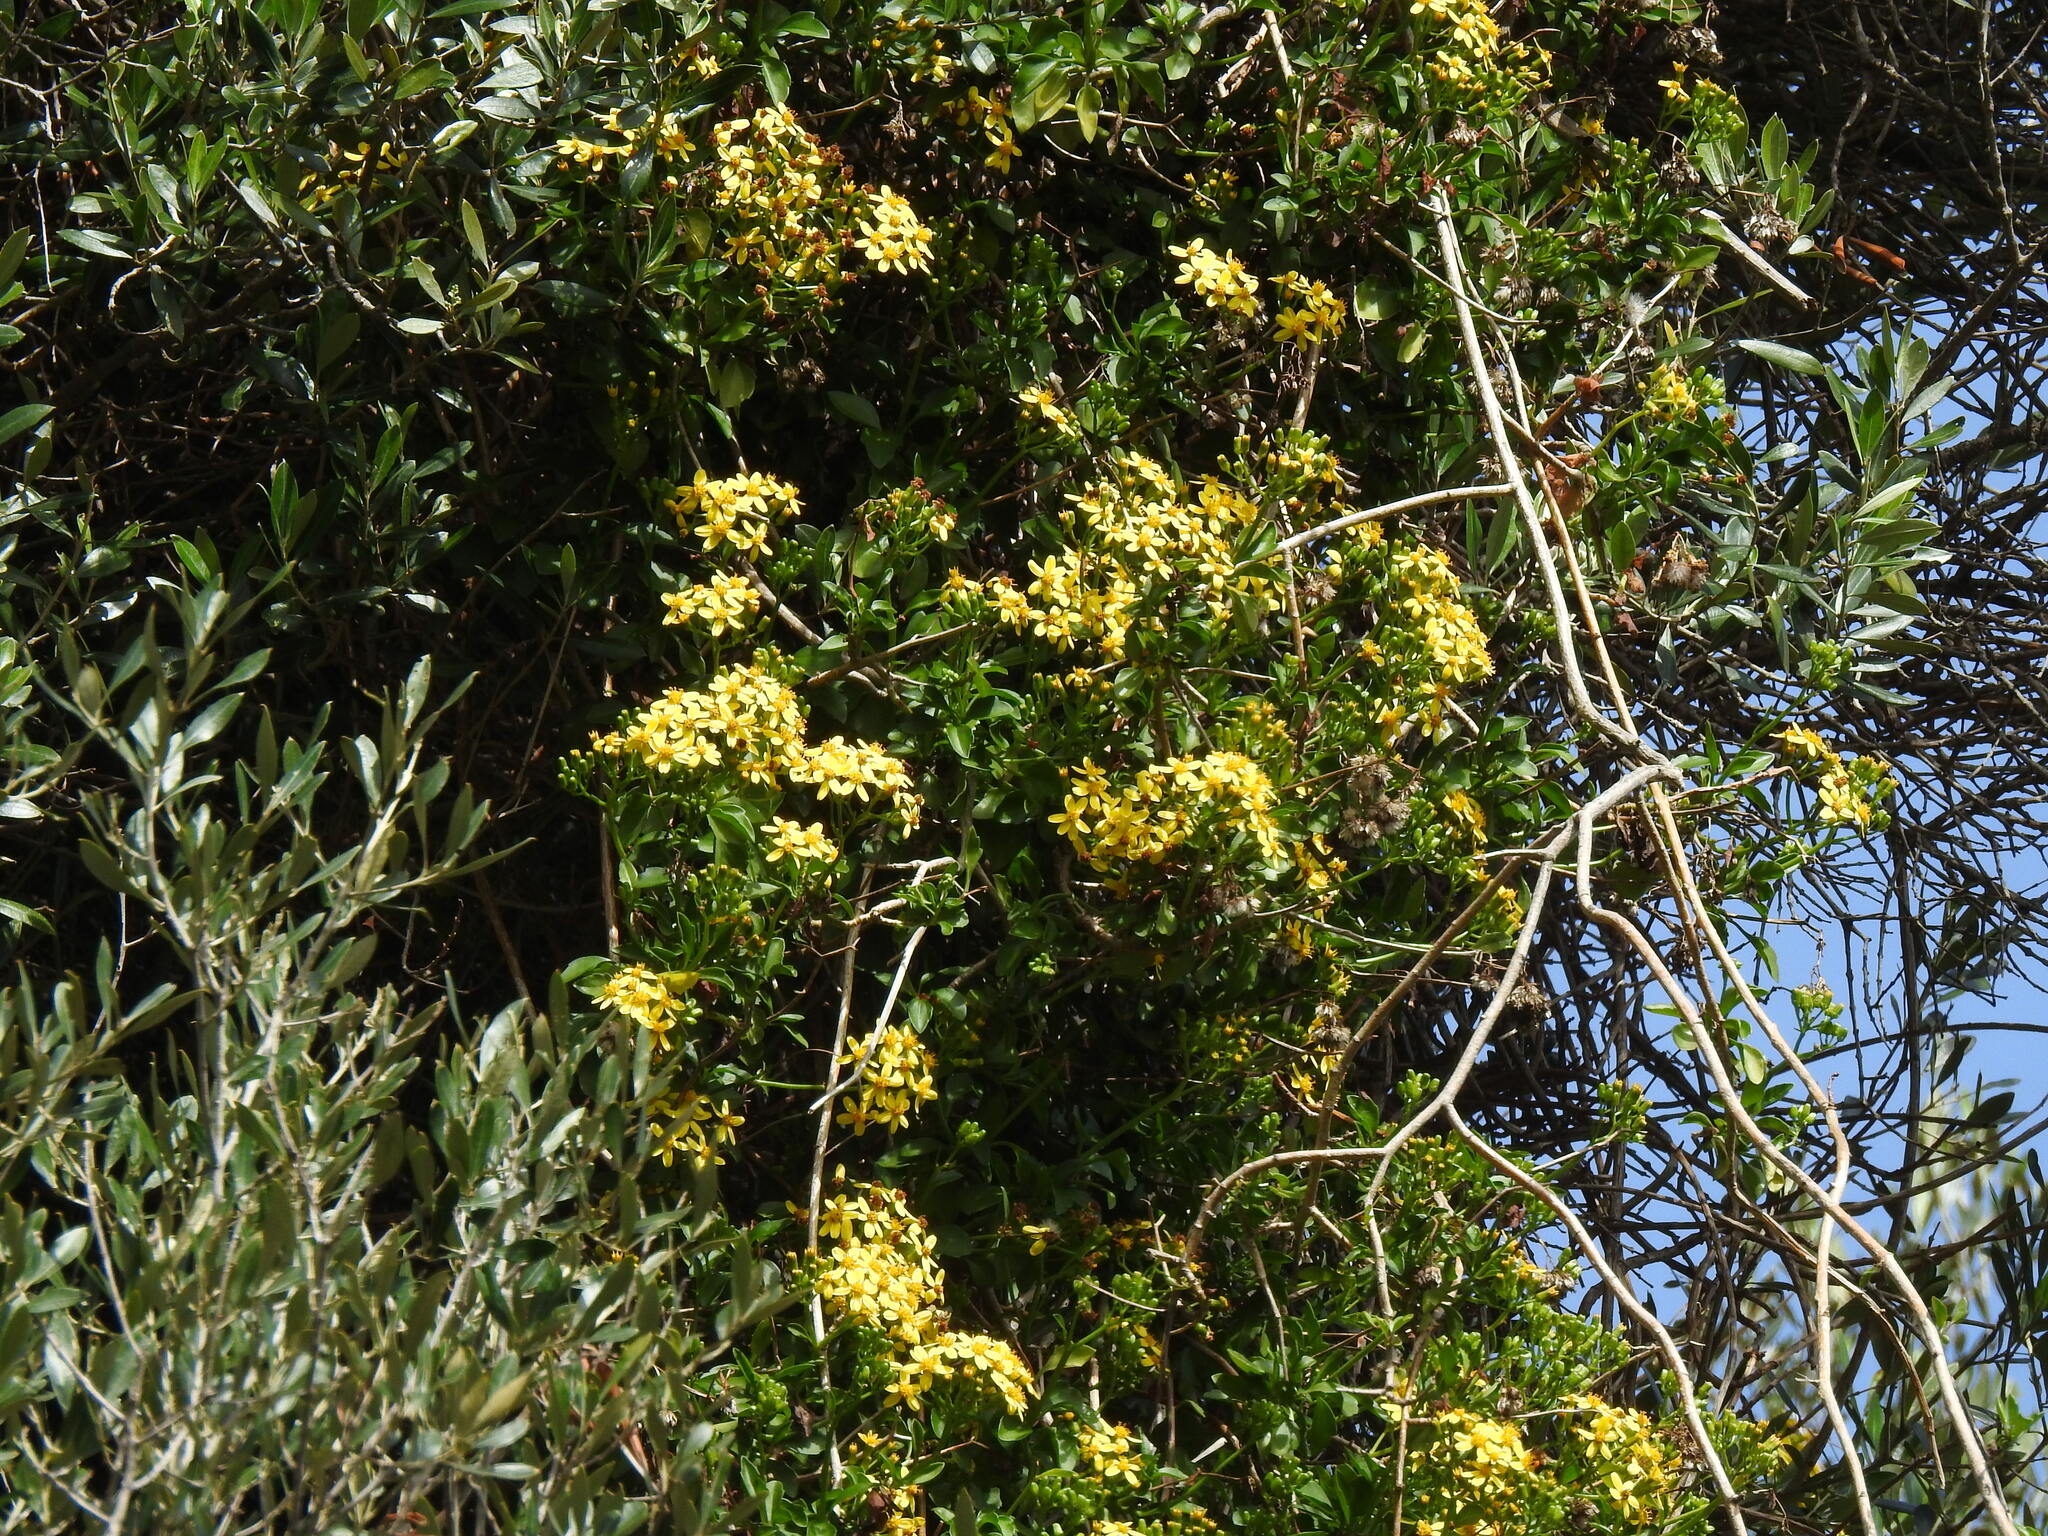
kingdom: Plantae
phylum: Tracheophyta
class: Magnoliopsida
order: Asterales
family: Asteraceae
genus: Senecio
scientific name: Senecio angulatus
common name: Climbing groundsel
